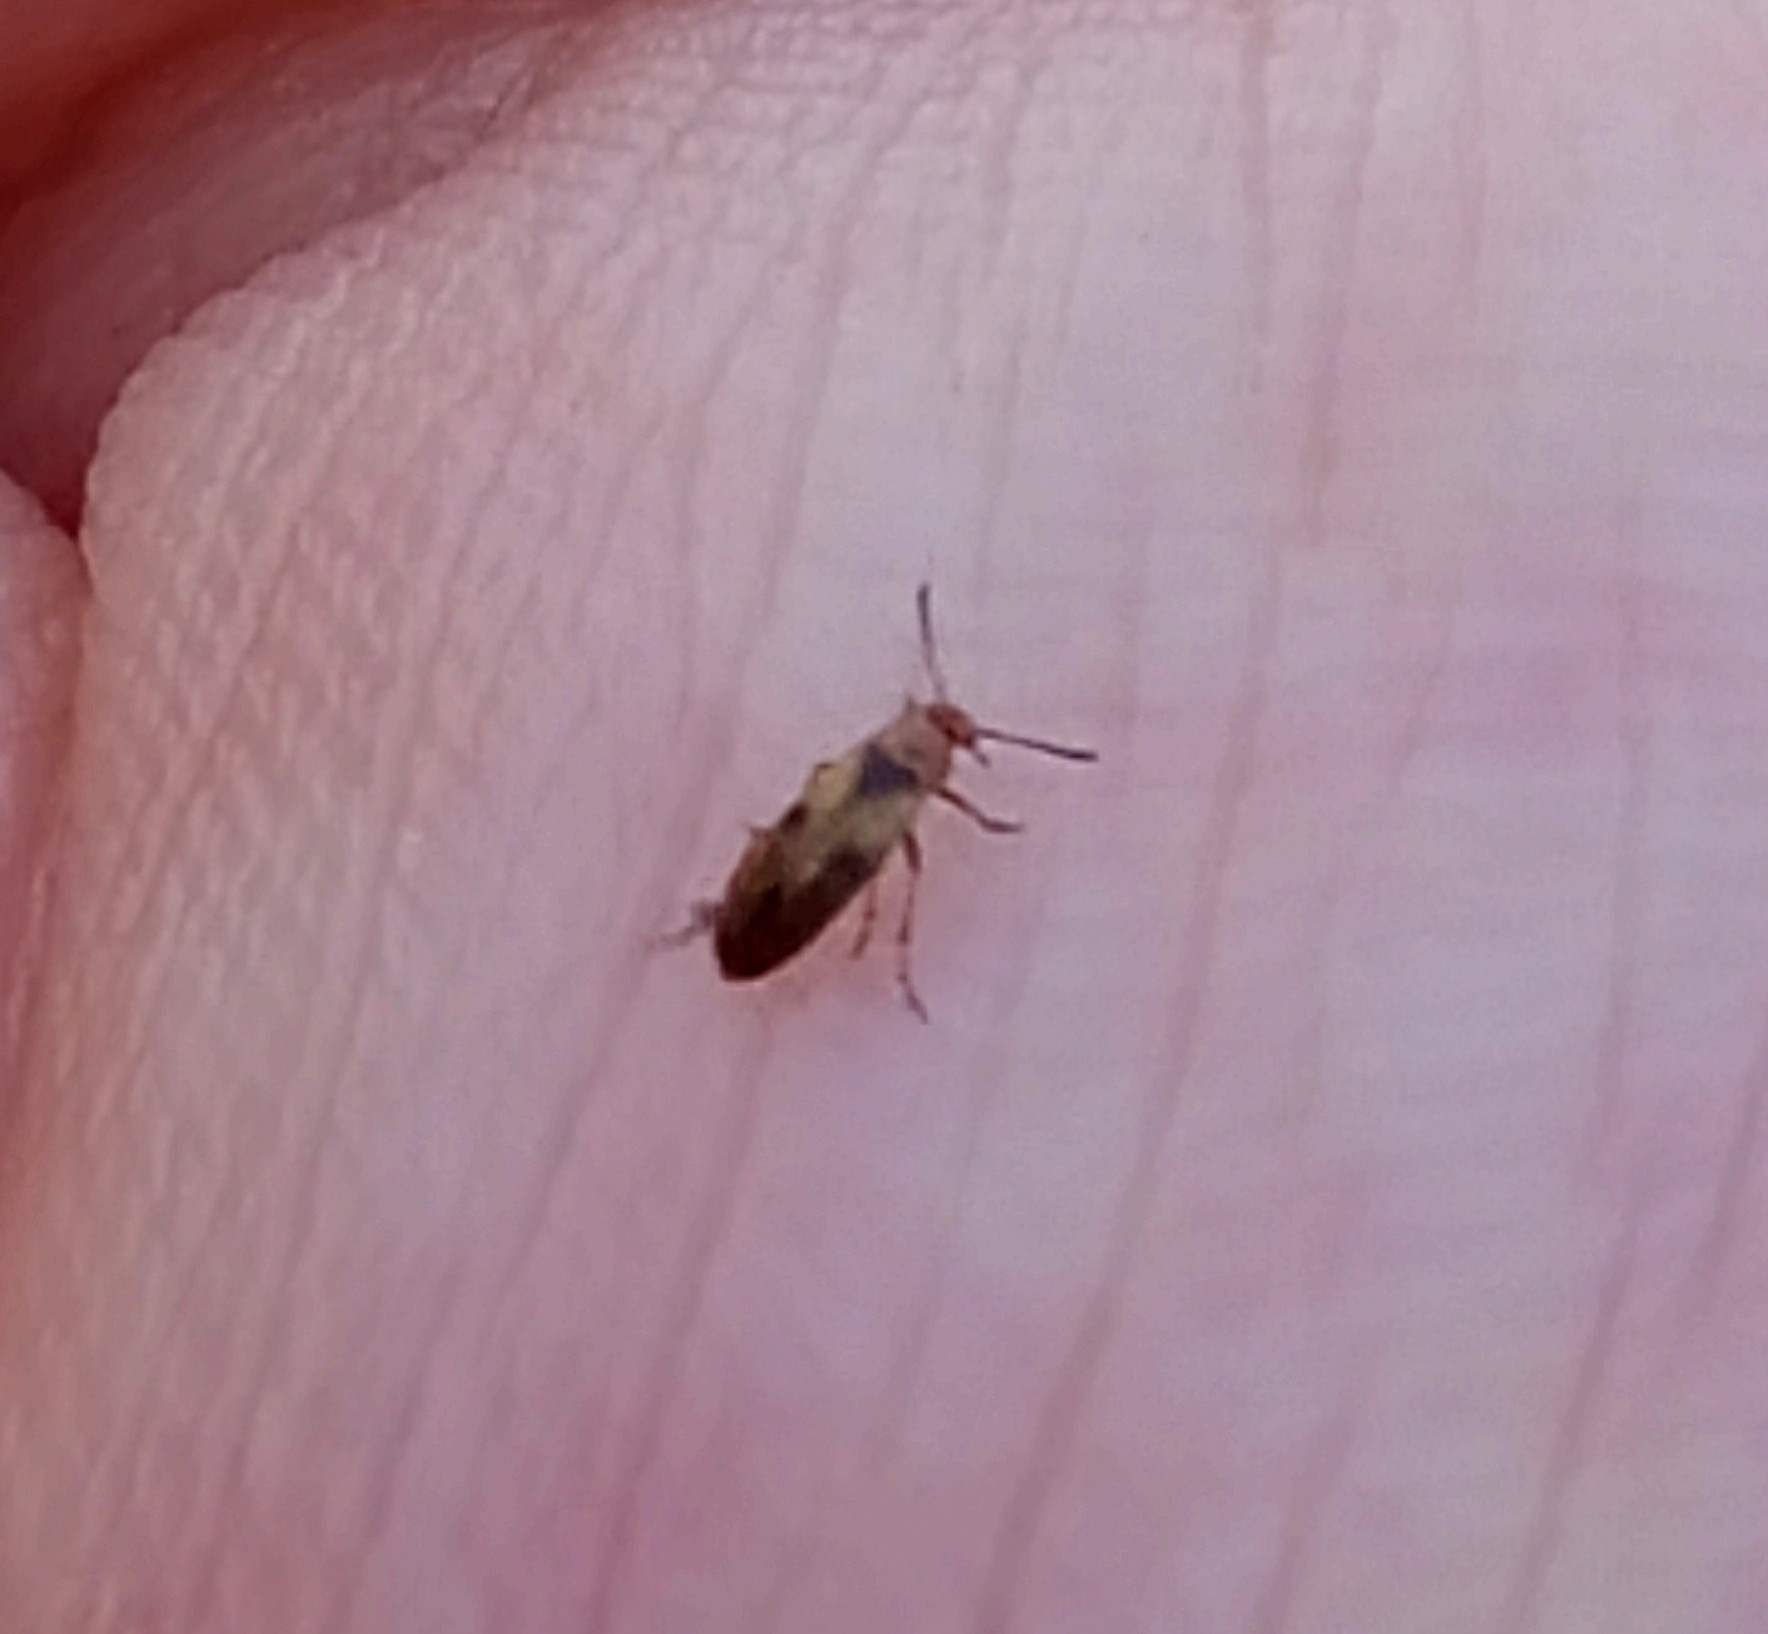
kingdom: Animalia
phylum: Arthropoda
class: Insecta
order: Coleoptera
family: Scraptiidae
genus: Anaspis
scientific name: Anaspis maculata
